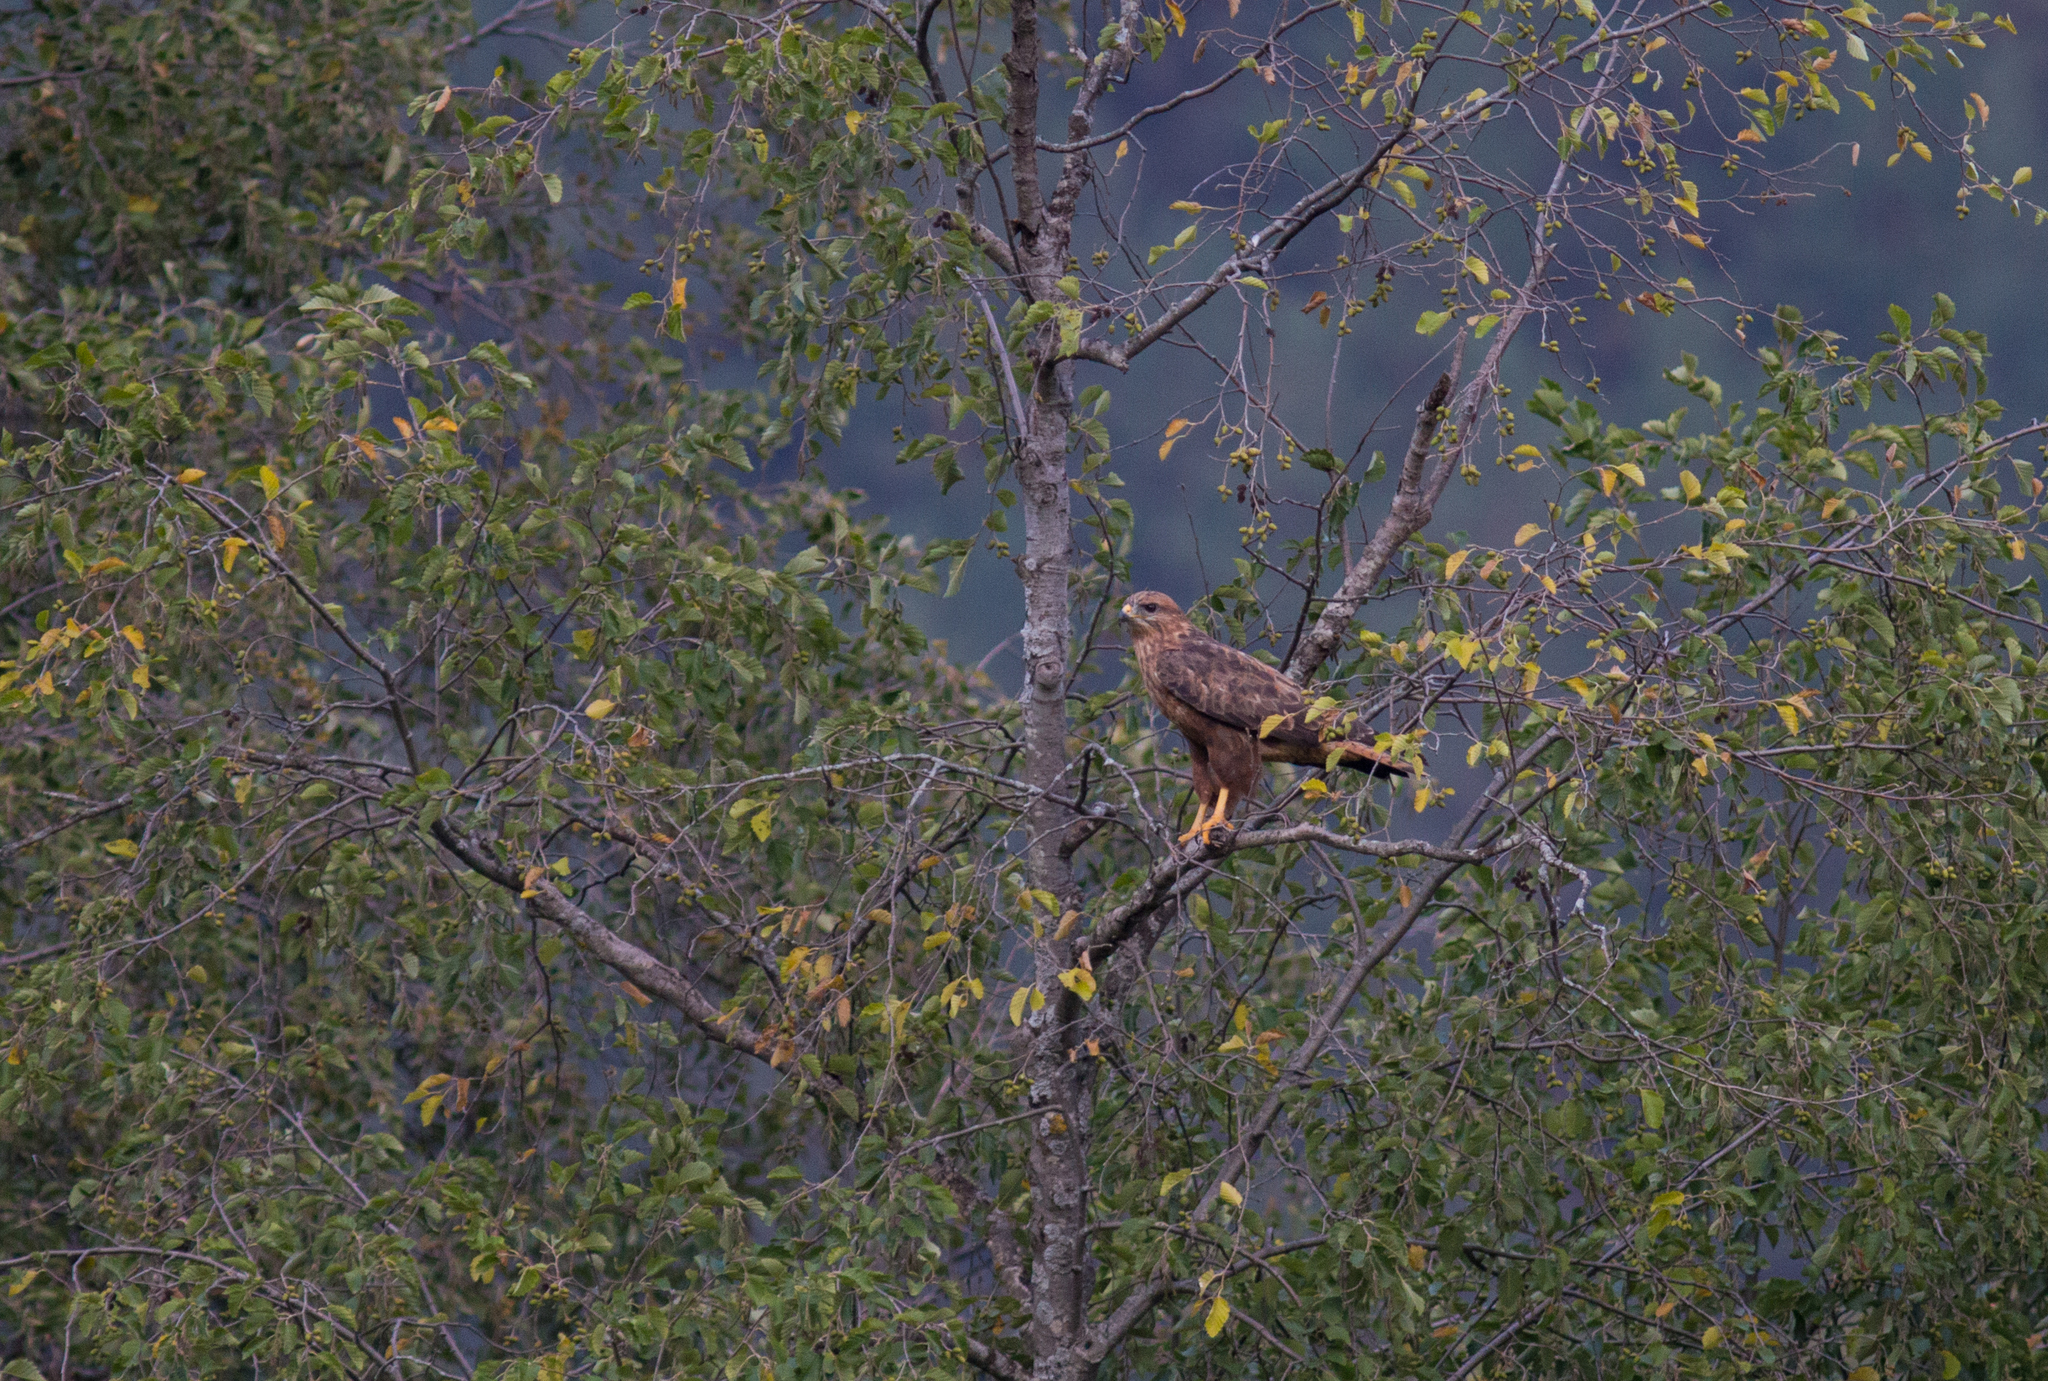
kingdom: Animalia
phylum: Chordata
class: Aves
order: Accipitriformes
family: Accipitridae
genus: Buteo
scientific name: Buteo buteo
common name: Common buzzard
